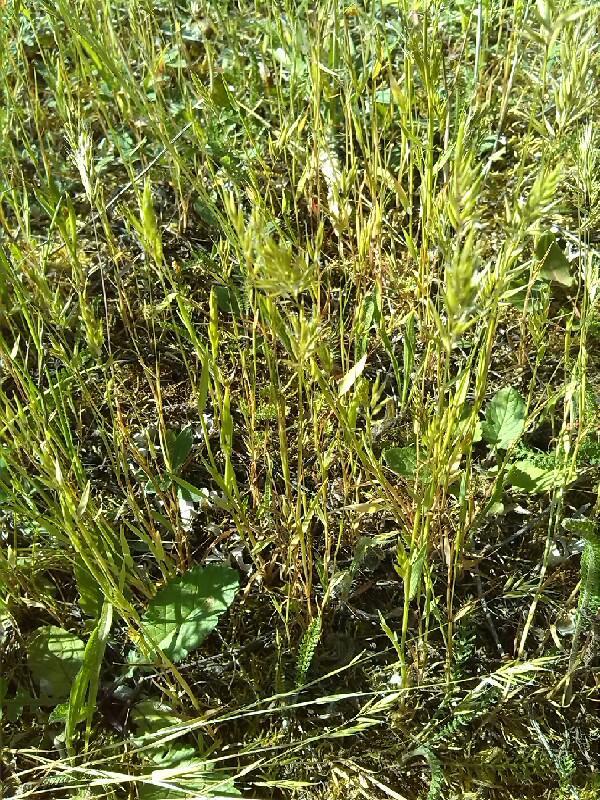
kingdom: Plantae
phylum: Tracheophyta
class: Liliopsida
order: Poales
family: Poaceae
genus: Anthoxanthum
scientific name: Anthoxanthum aristatum
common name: Annual vernal-grass
